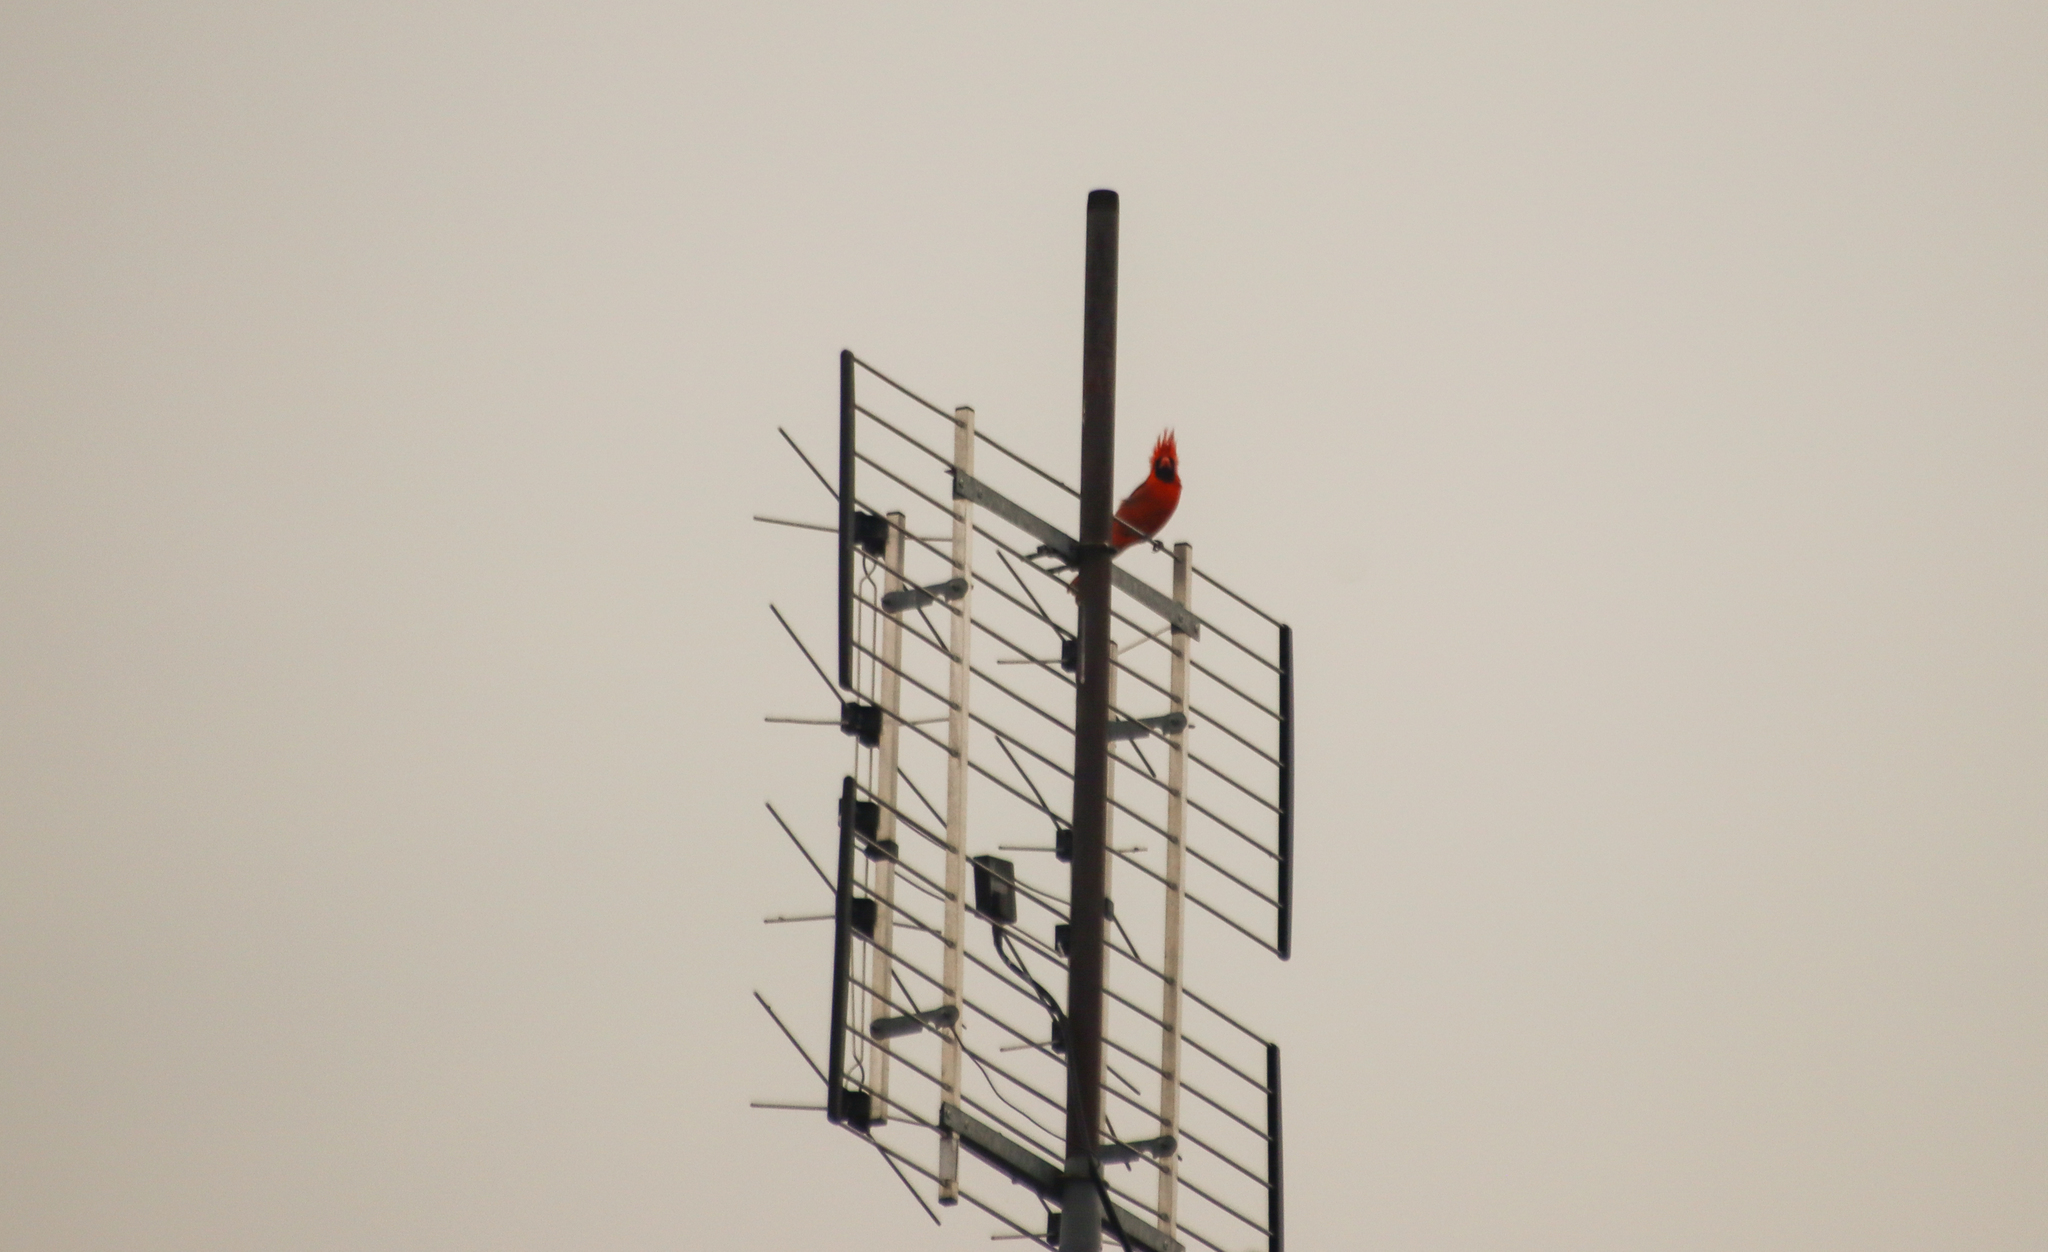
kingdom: Animalia
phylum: Chordata
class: Aves
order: Passeriformes
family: Cardinalidae
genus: Cardinalis
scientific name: Cardinalis cardinalis
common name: Northern cardinal
